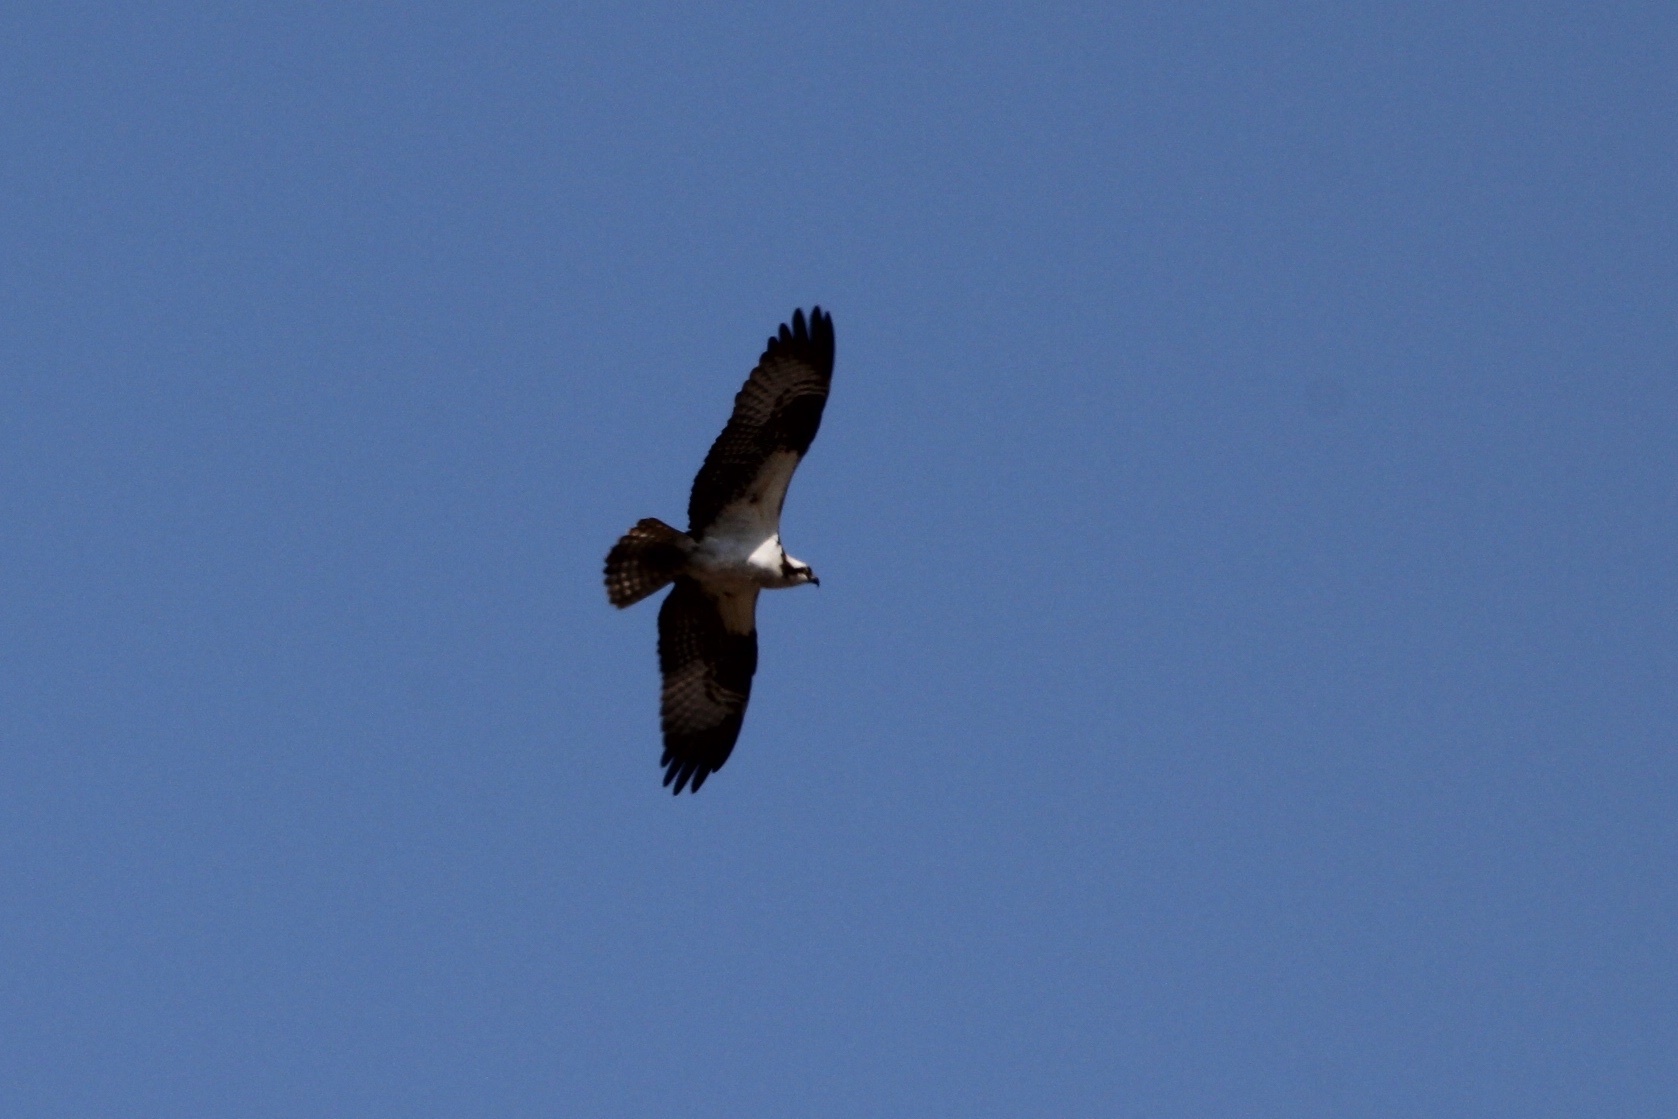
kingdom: Animalia
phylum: Chordata
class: Aves
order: Accipitriformes
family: Pandionidae
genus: Pandion
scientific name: Pandion haliaetus
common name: Osprey
